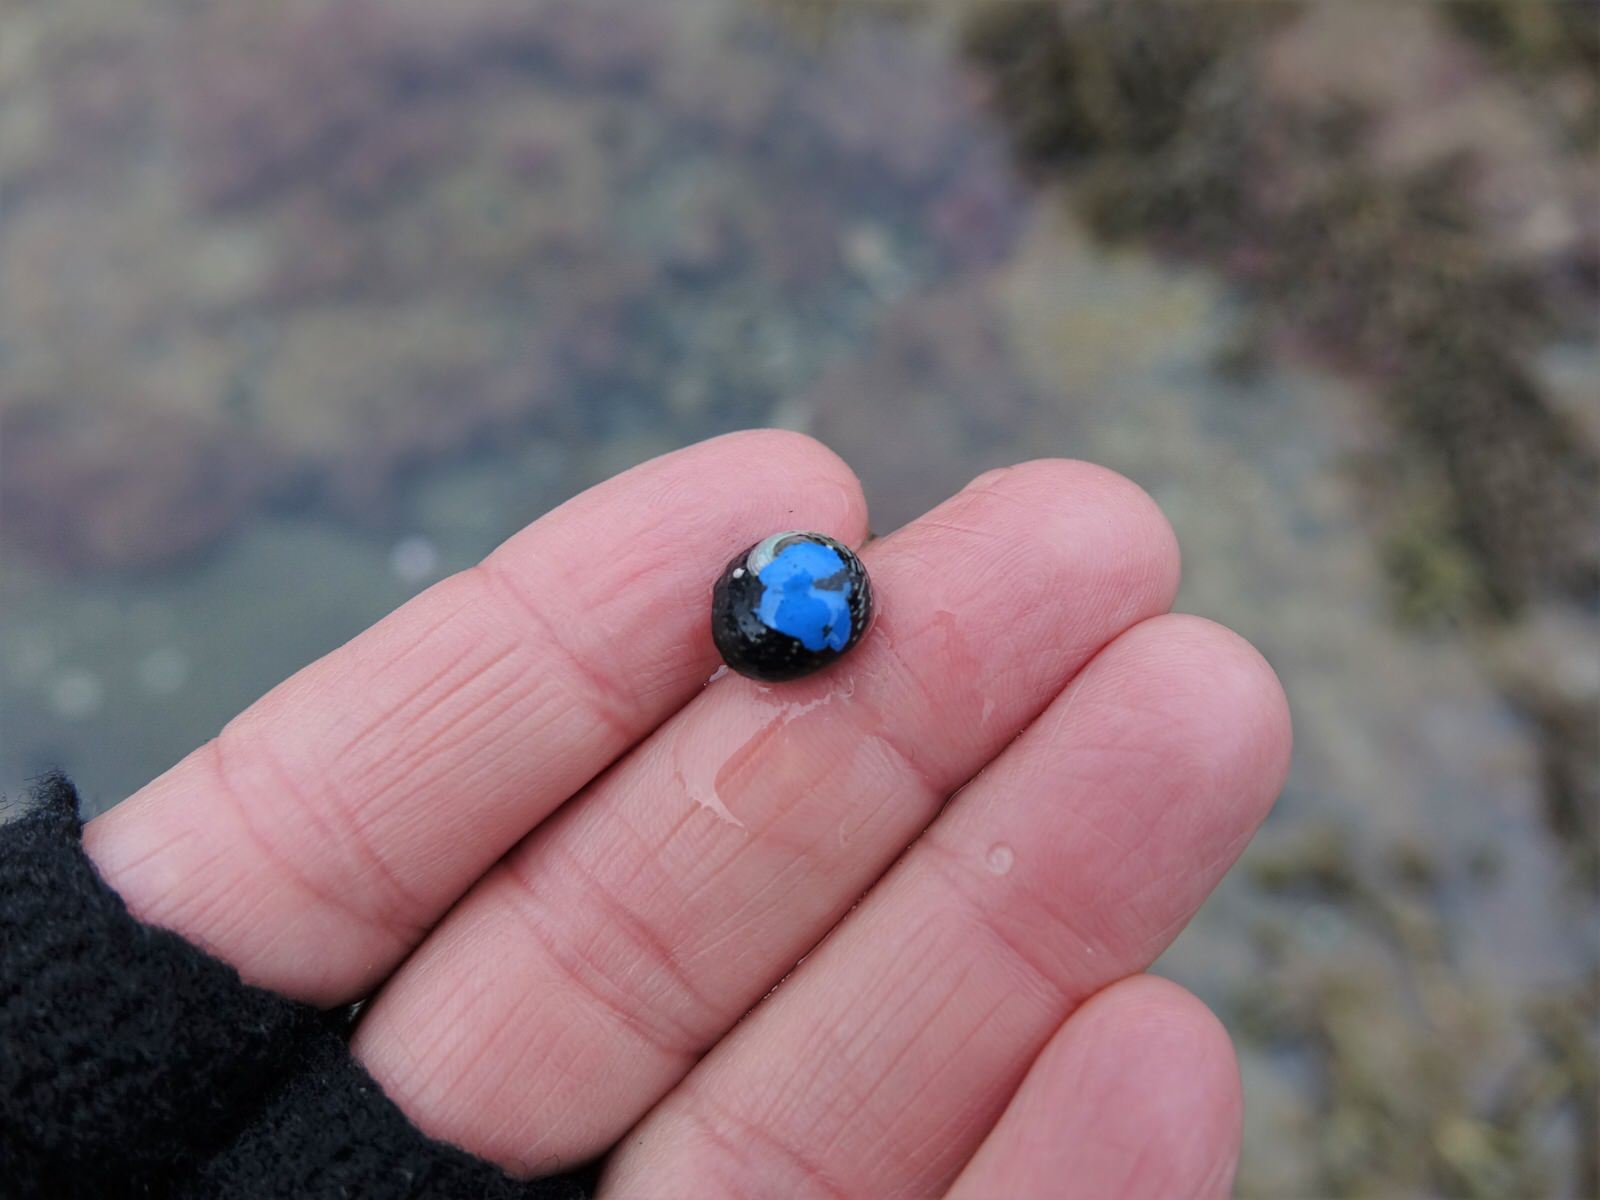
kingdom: Animalia
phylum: Mollusca
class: Gastropoda
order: Trochida
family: Trochidae
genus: Diloma
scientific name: Diloma aethiops
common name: Scorched monodont
